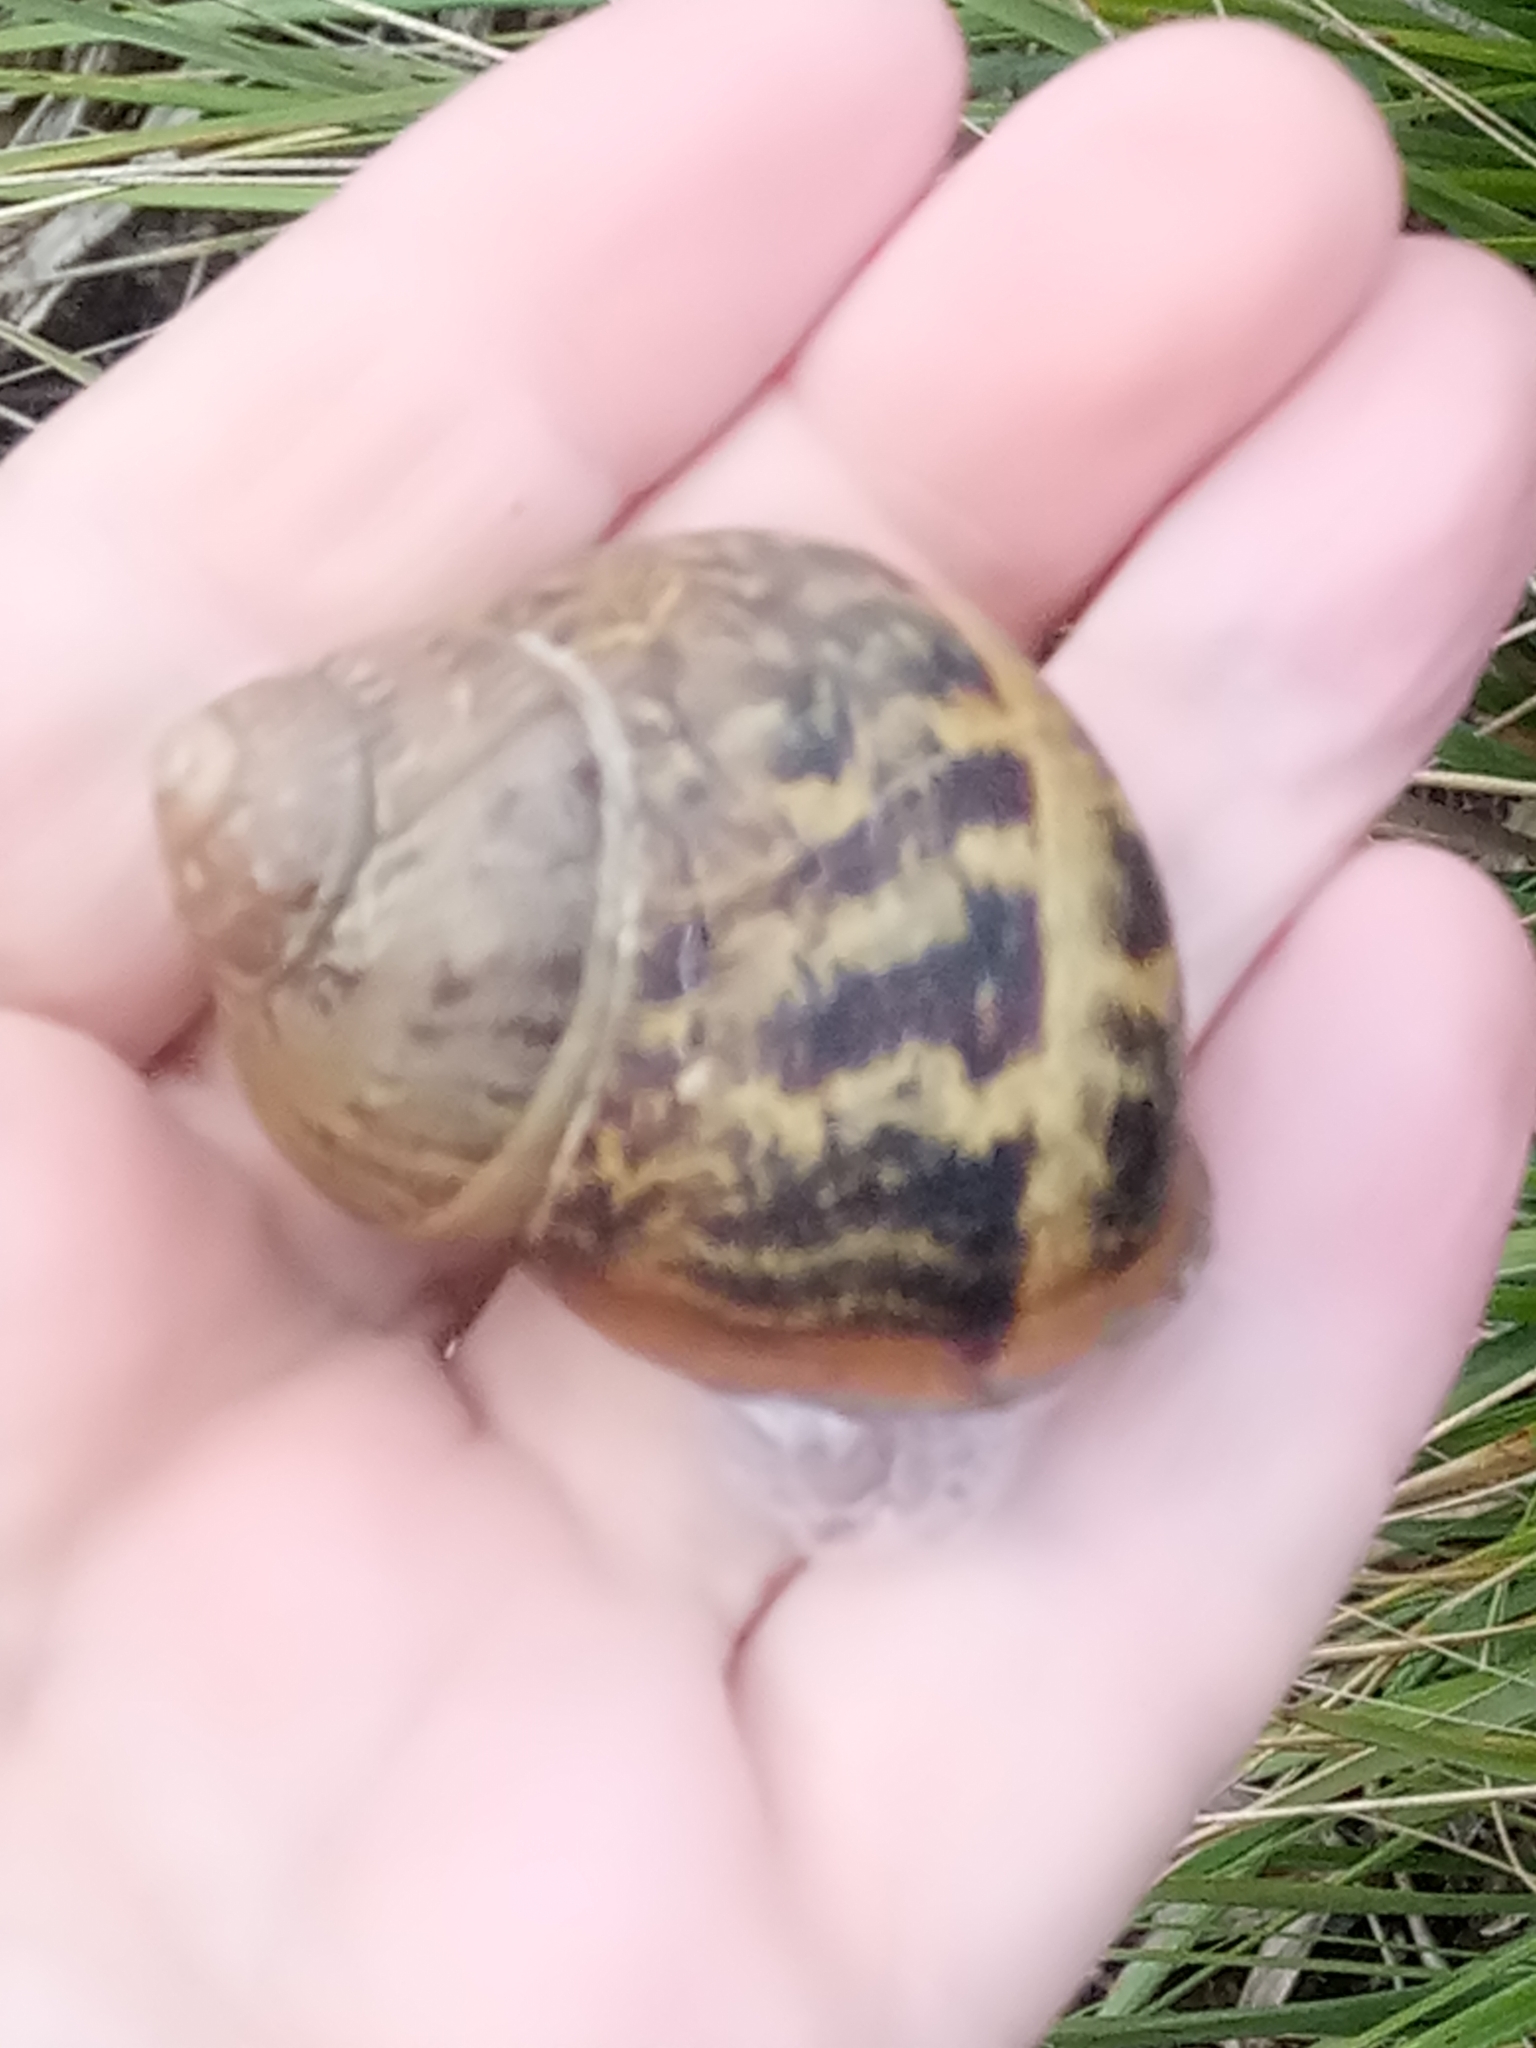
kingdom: Animalia
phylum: Mollusca
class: Gastropoda
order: Stylommatophora
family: Helicidae
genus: Cornu
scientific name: Cornu aspersum
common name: Brown garden snail
